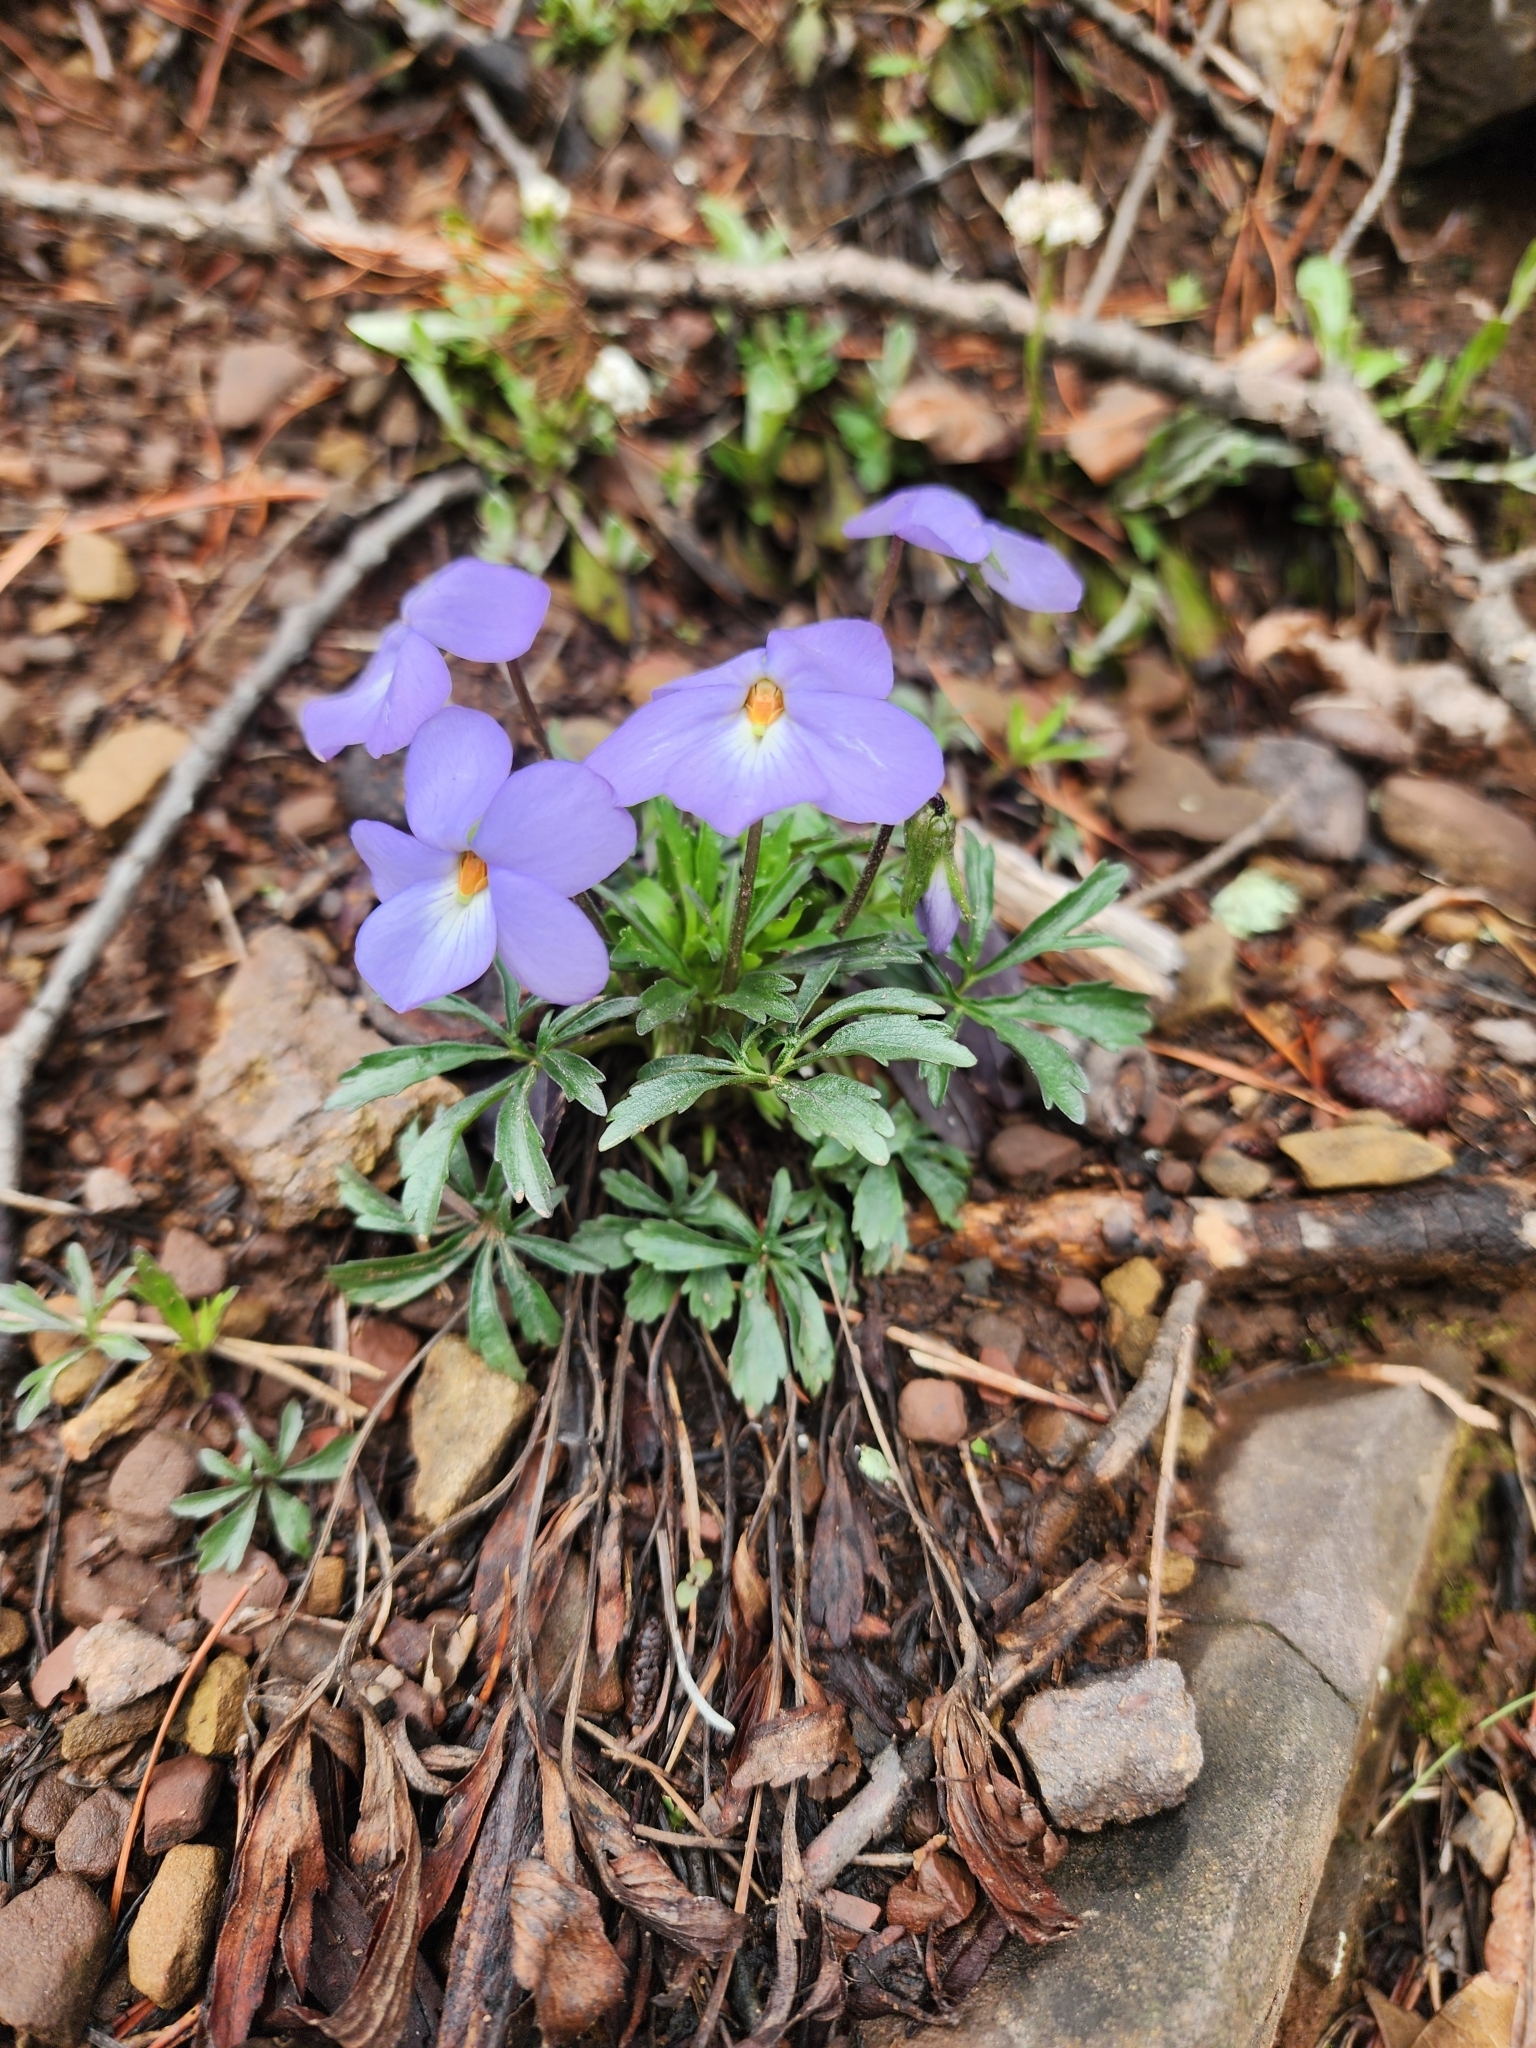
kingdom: Plantae
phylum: Tracheophyta
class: Magnoliopsida
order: Malpighiales
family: Violaceae
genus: Viola
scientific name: Viola pedata
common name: Pansy violet
